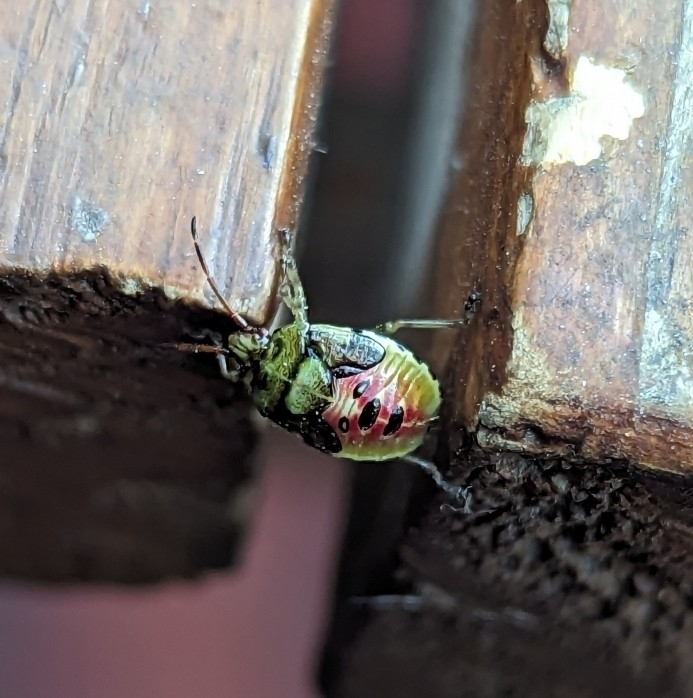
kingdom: Animalia
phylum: Arthropoda
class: Insecta
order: Hemiptera
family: Acanthosomatidae
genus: Elasmostethus
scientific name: Elasmostethus interstinctus
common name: Birch shieldbug
